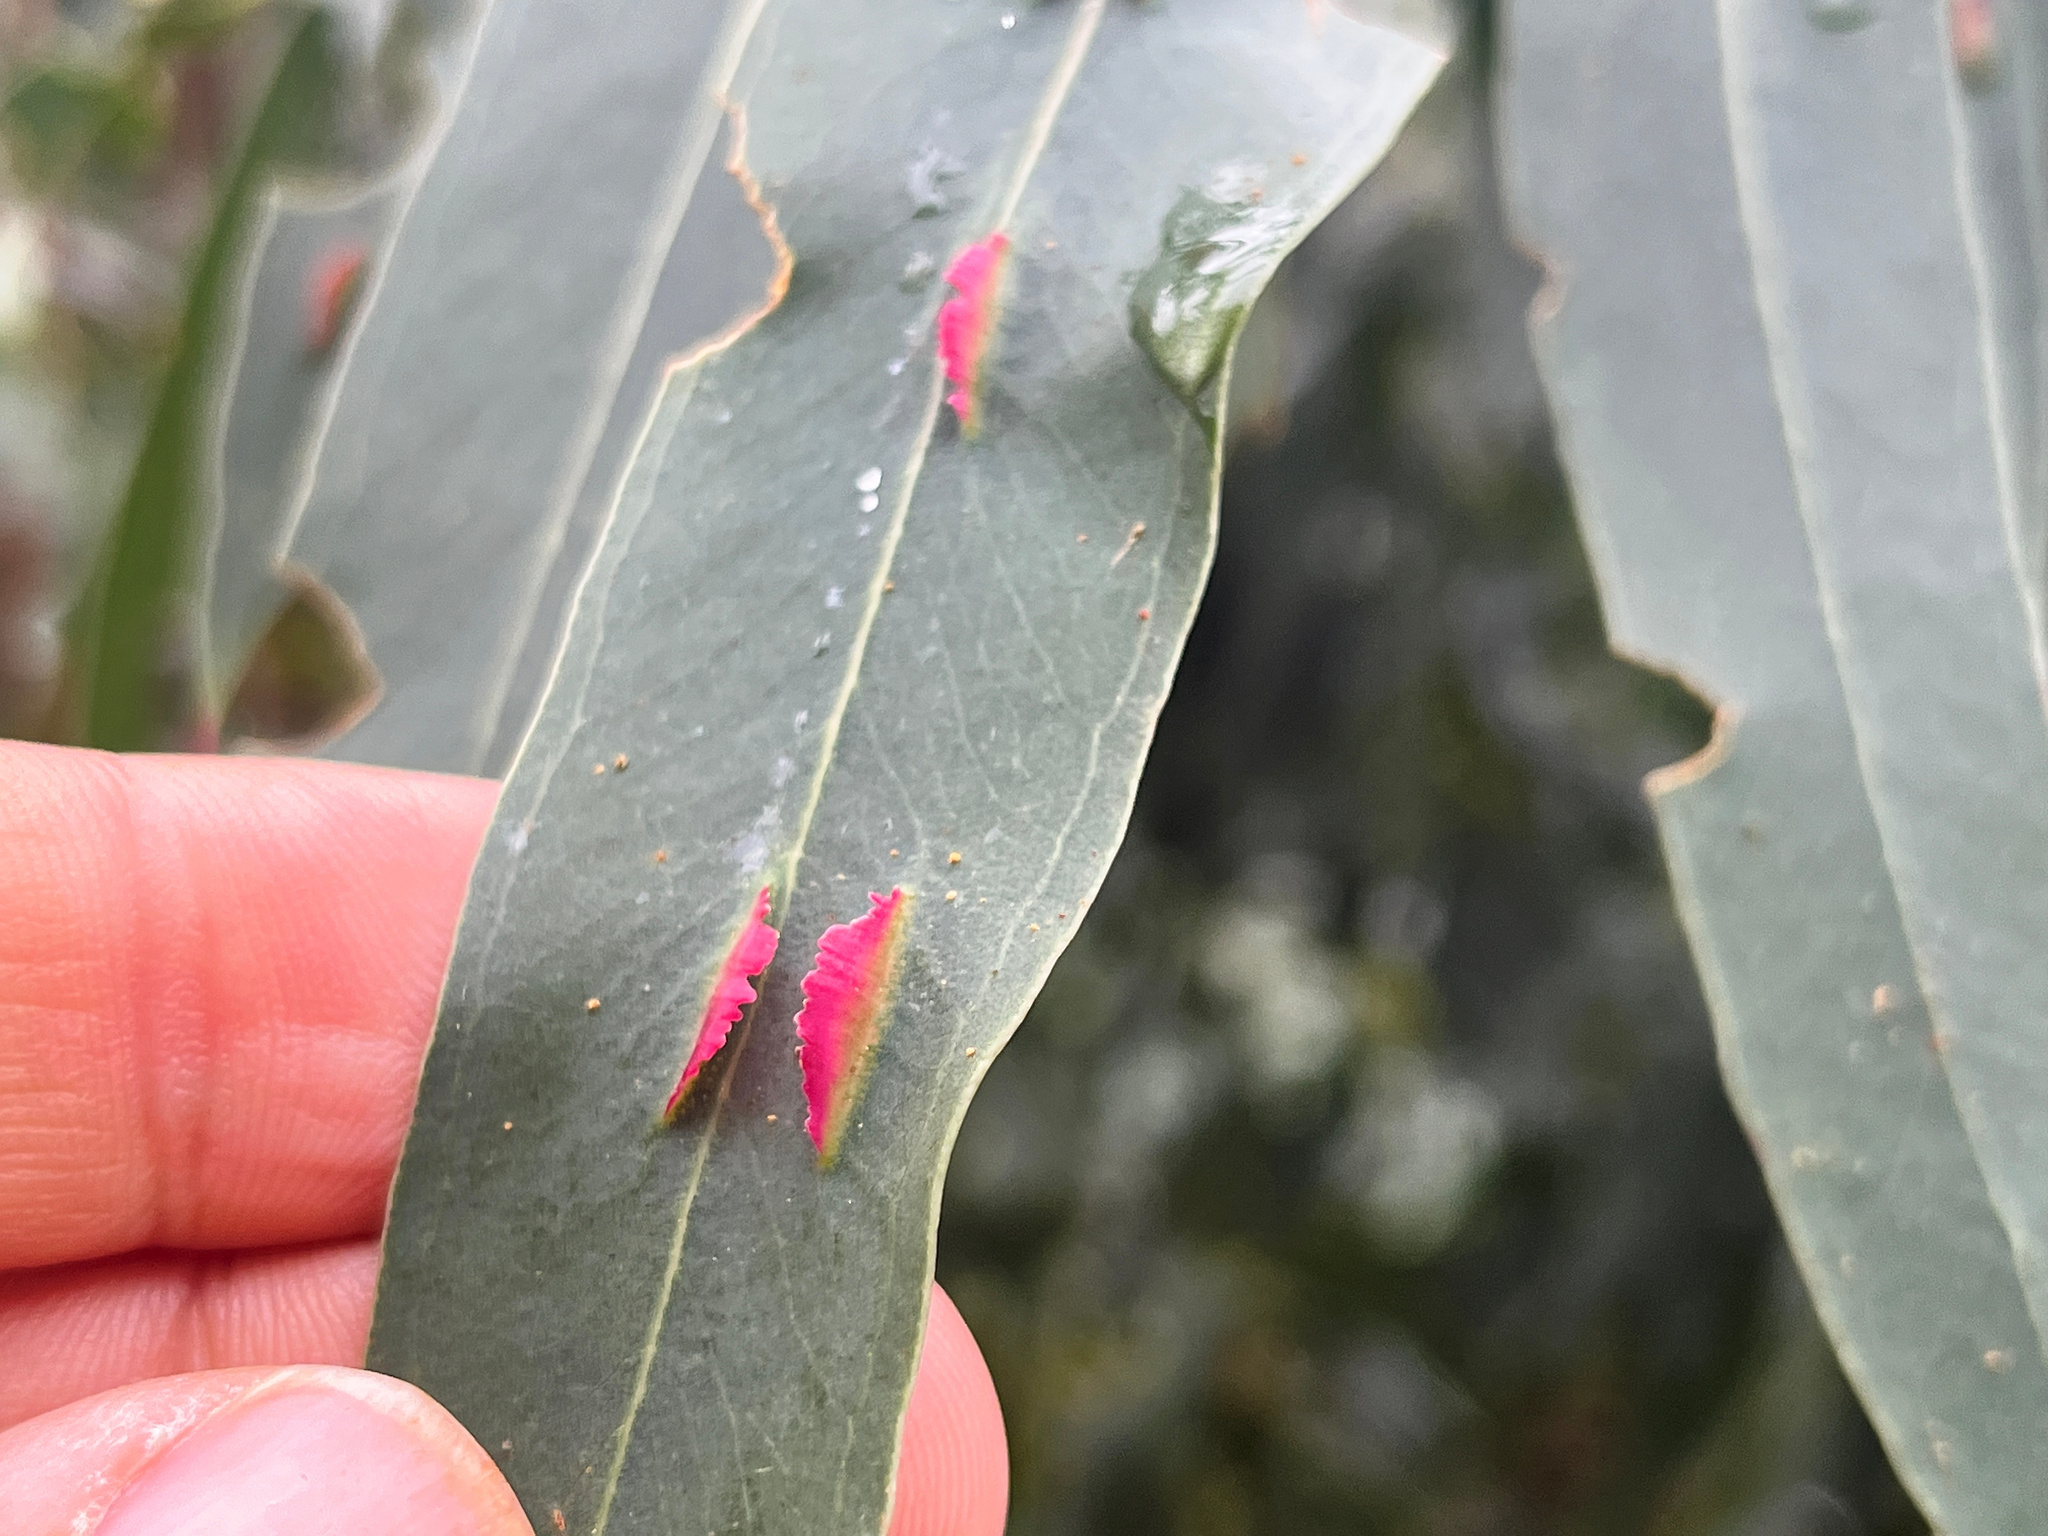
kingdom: Animalia
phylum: Arthropoda
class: Insecta
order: Hymenoptera
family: Pteromalidae
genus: Nambouria
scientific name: Nambouria xanthops
